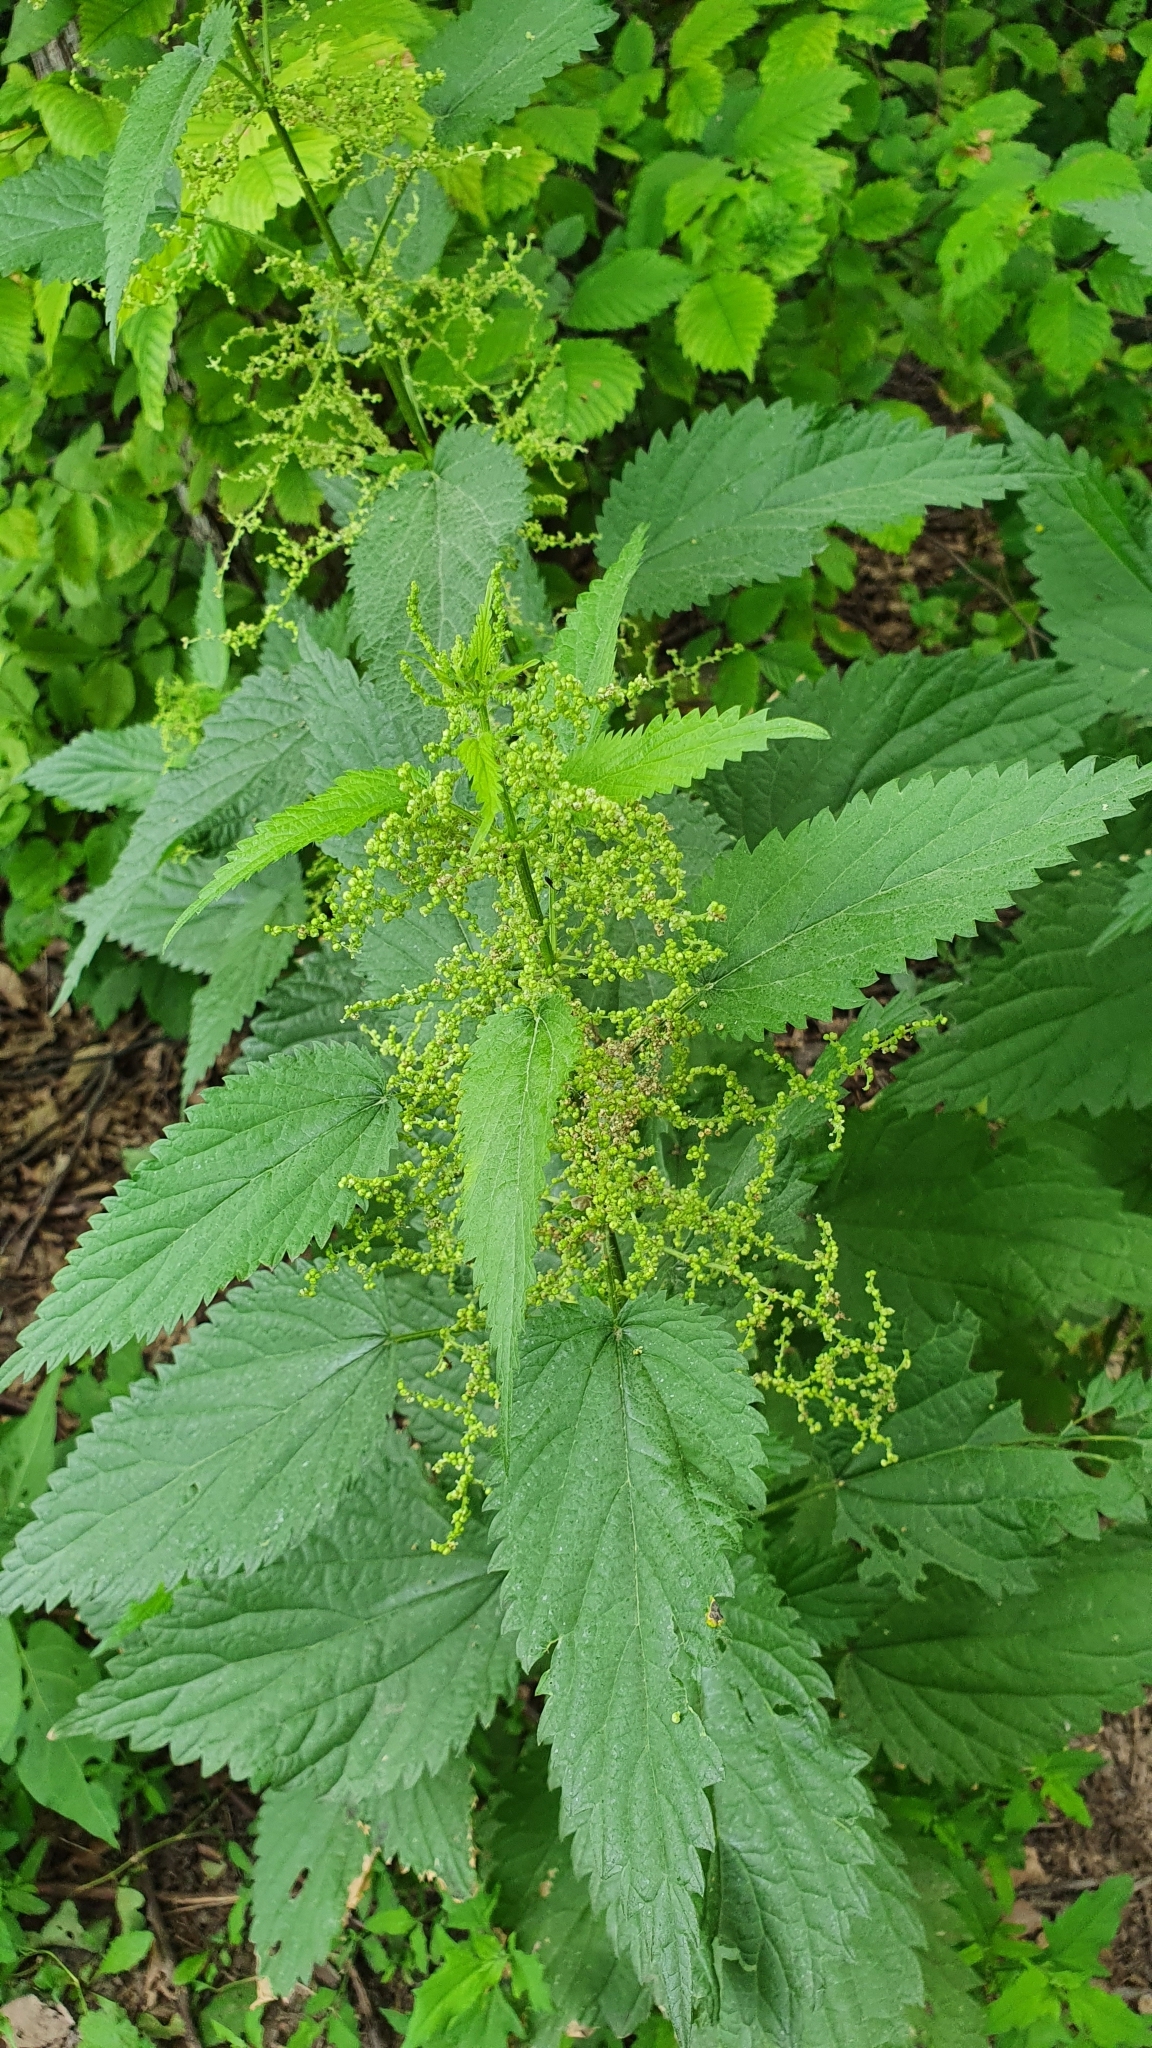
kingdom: Plantae
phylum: Tracheophyta
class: Magnoliopsida
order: Rosales
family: Urticaceae
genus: Urtica
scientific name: Urtica dioica
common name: Common nettle
